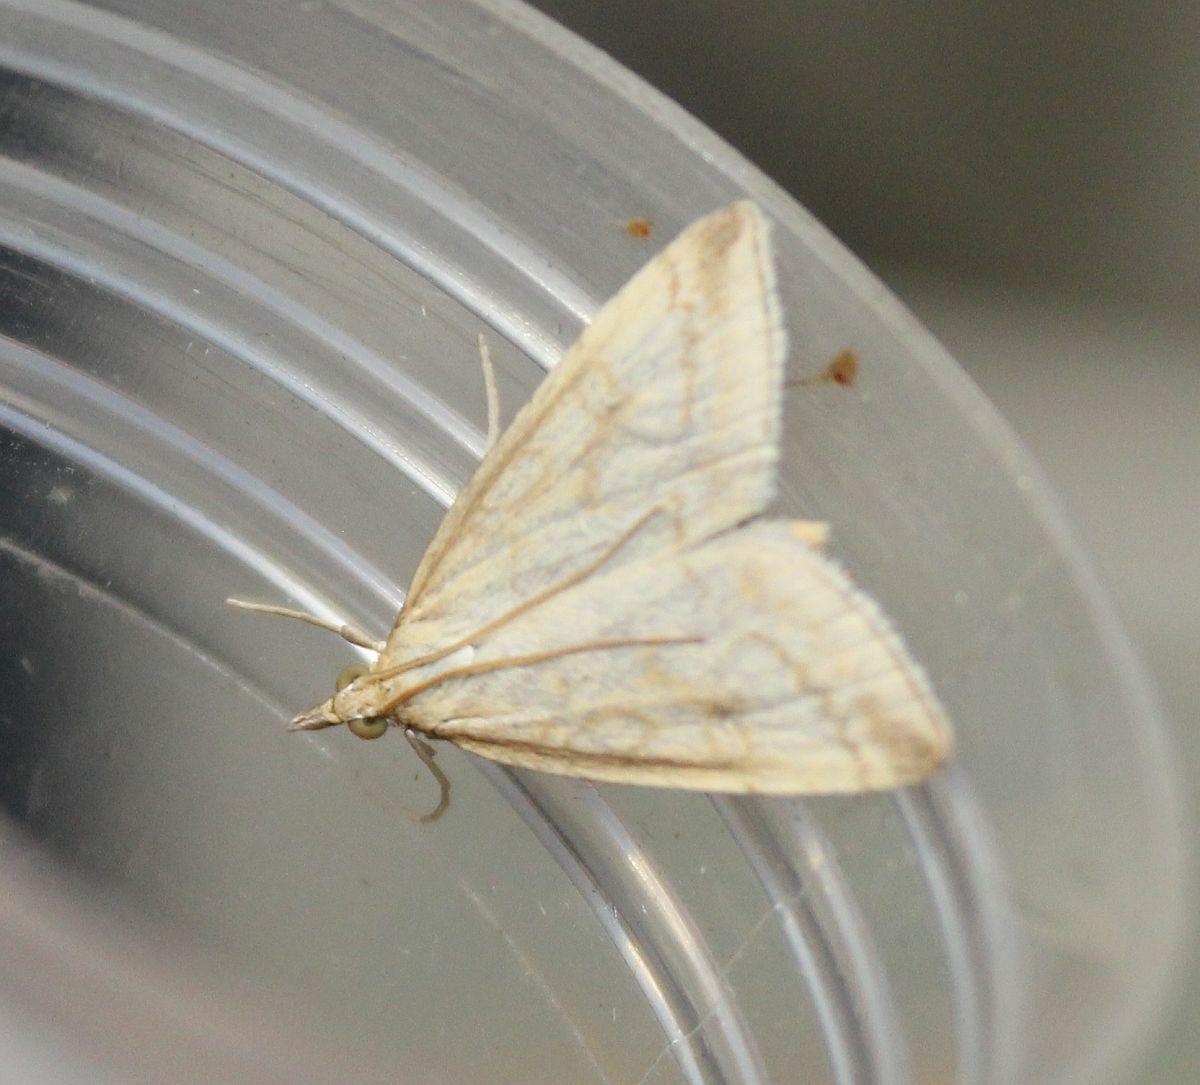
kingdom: Animalia
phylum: Arthropoda
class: Insecta
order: Lepidoptera
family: Crambidae
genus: Udea
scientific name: Udea lutealis
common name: Pale straw pearl
